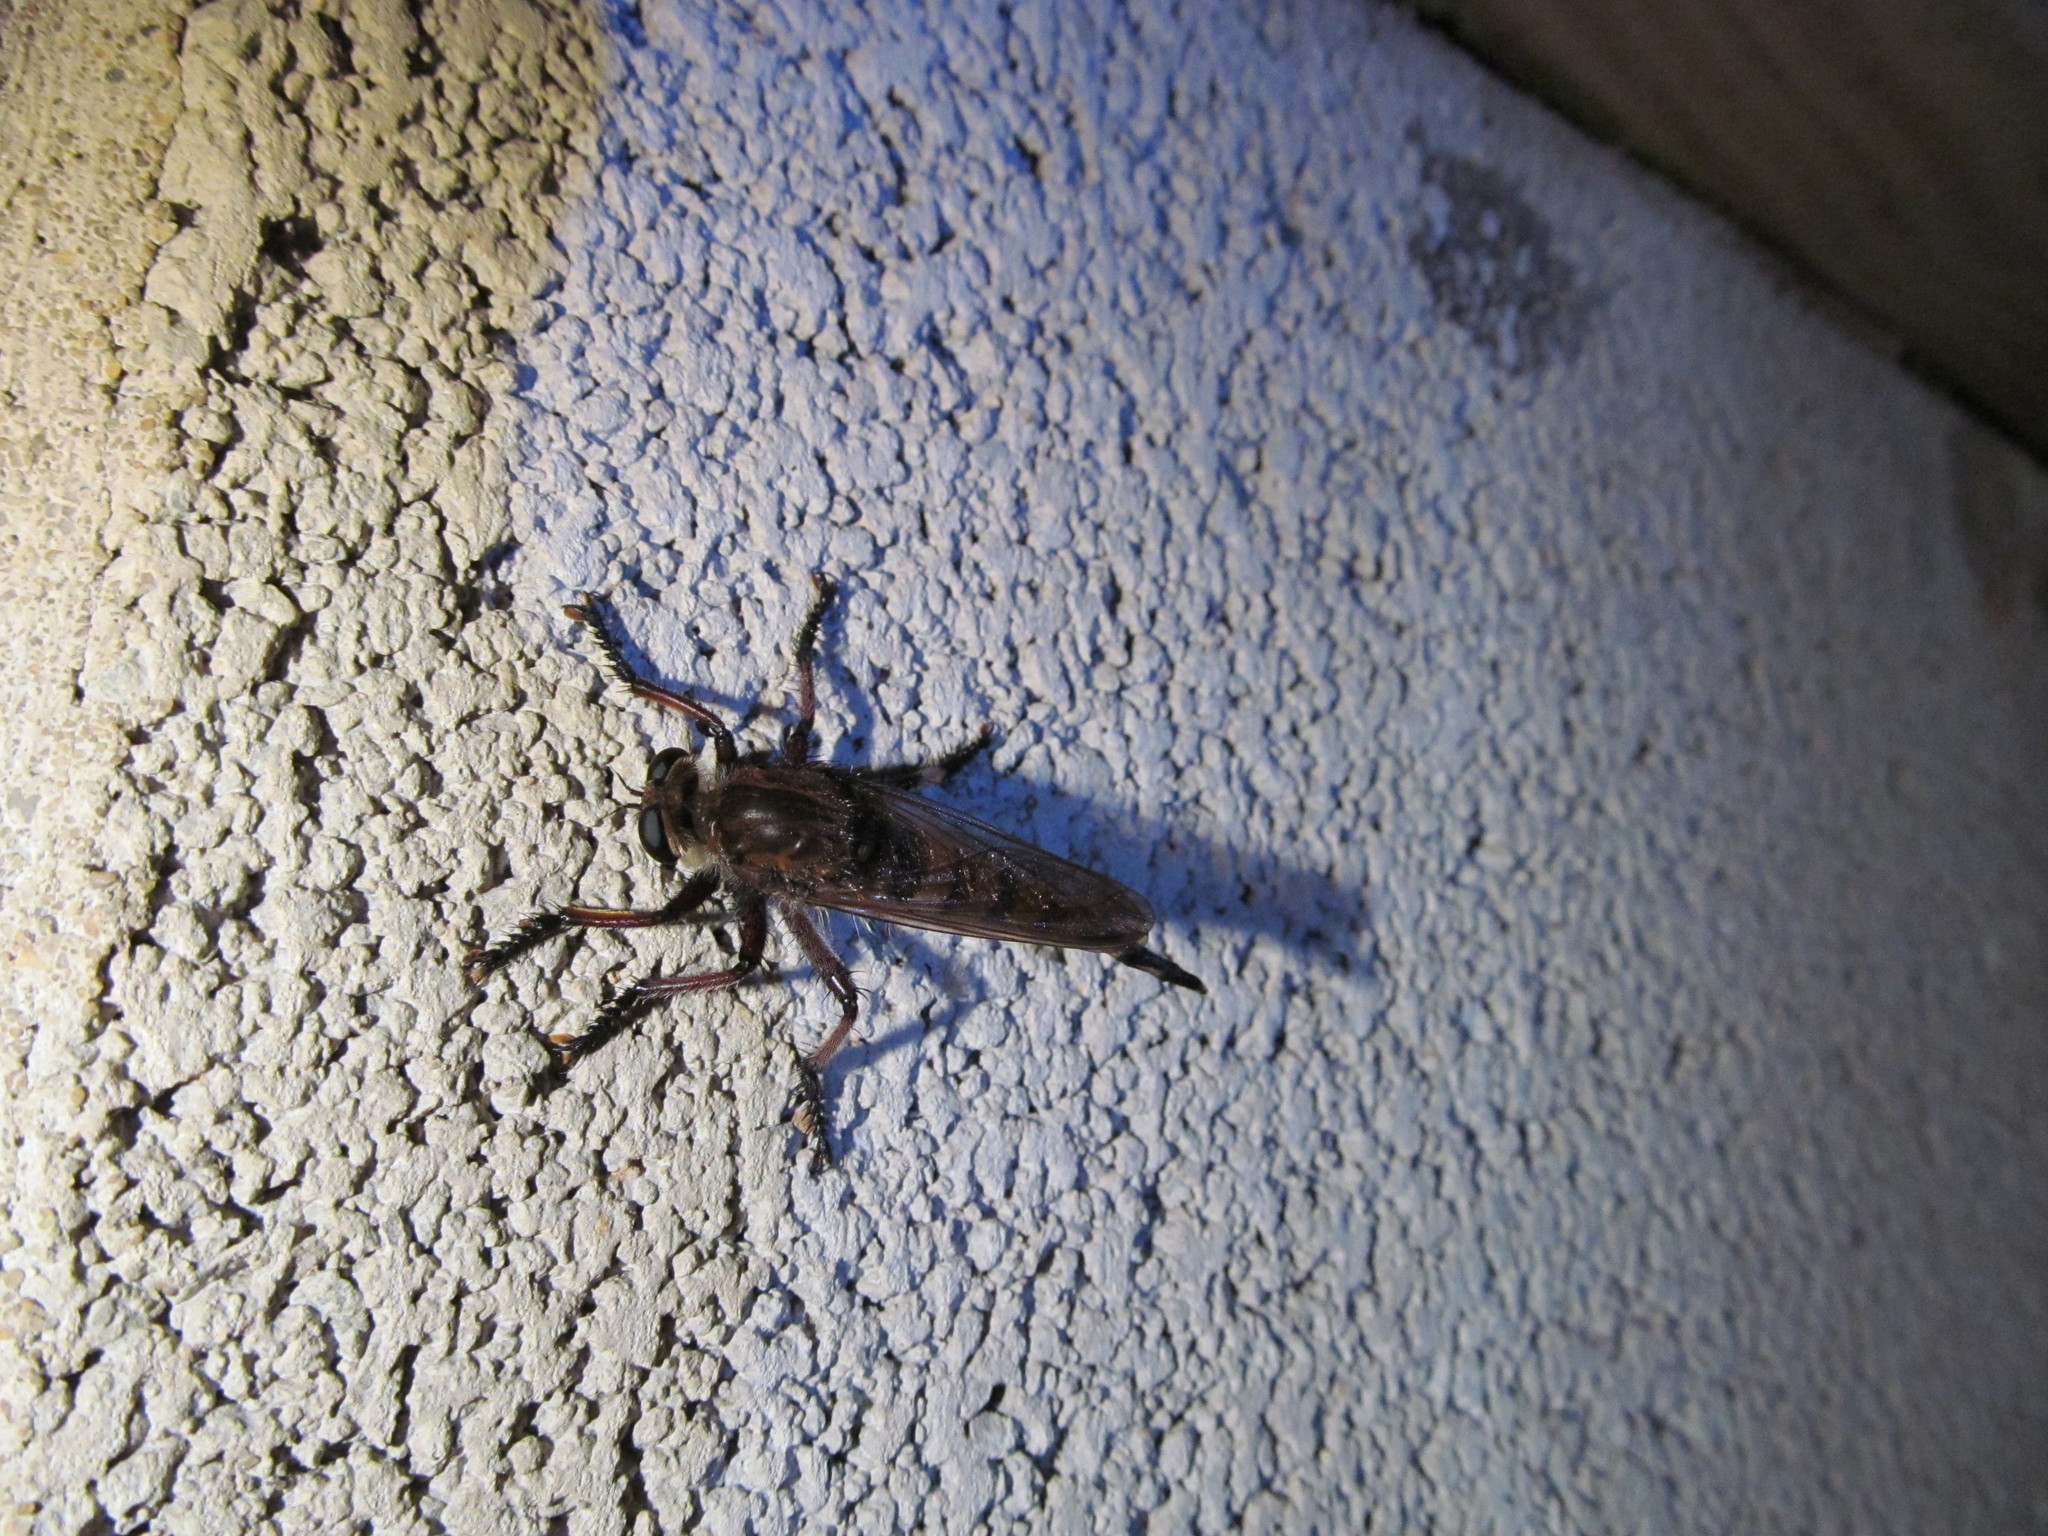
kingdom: Animalia
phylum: Arthropoda
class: Insecta
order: Diptera
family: Asilidae
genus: Promachus
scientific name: Promachus hinei
